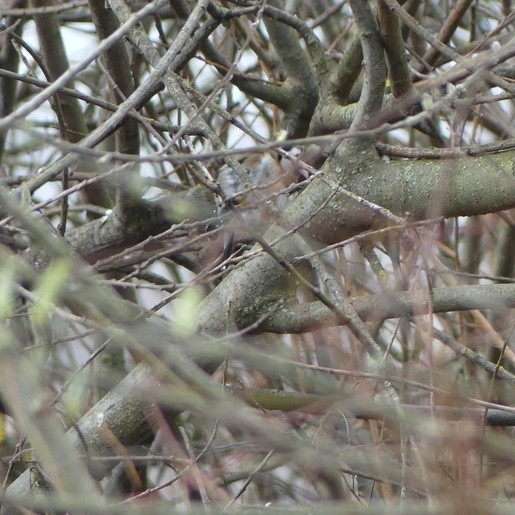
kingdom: Animalia
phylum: Chordata
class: Aves
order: Passeriformes
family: Fringillidae
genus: Carduelis
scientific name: Carduelis carduelis
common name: European goldfinch
